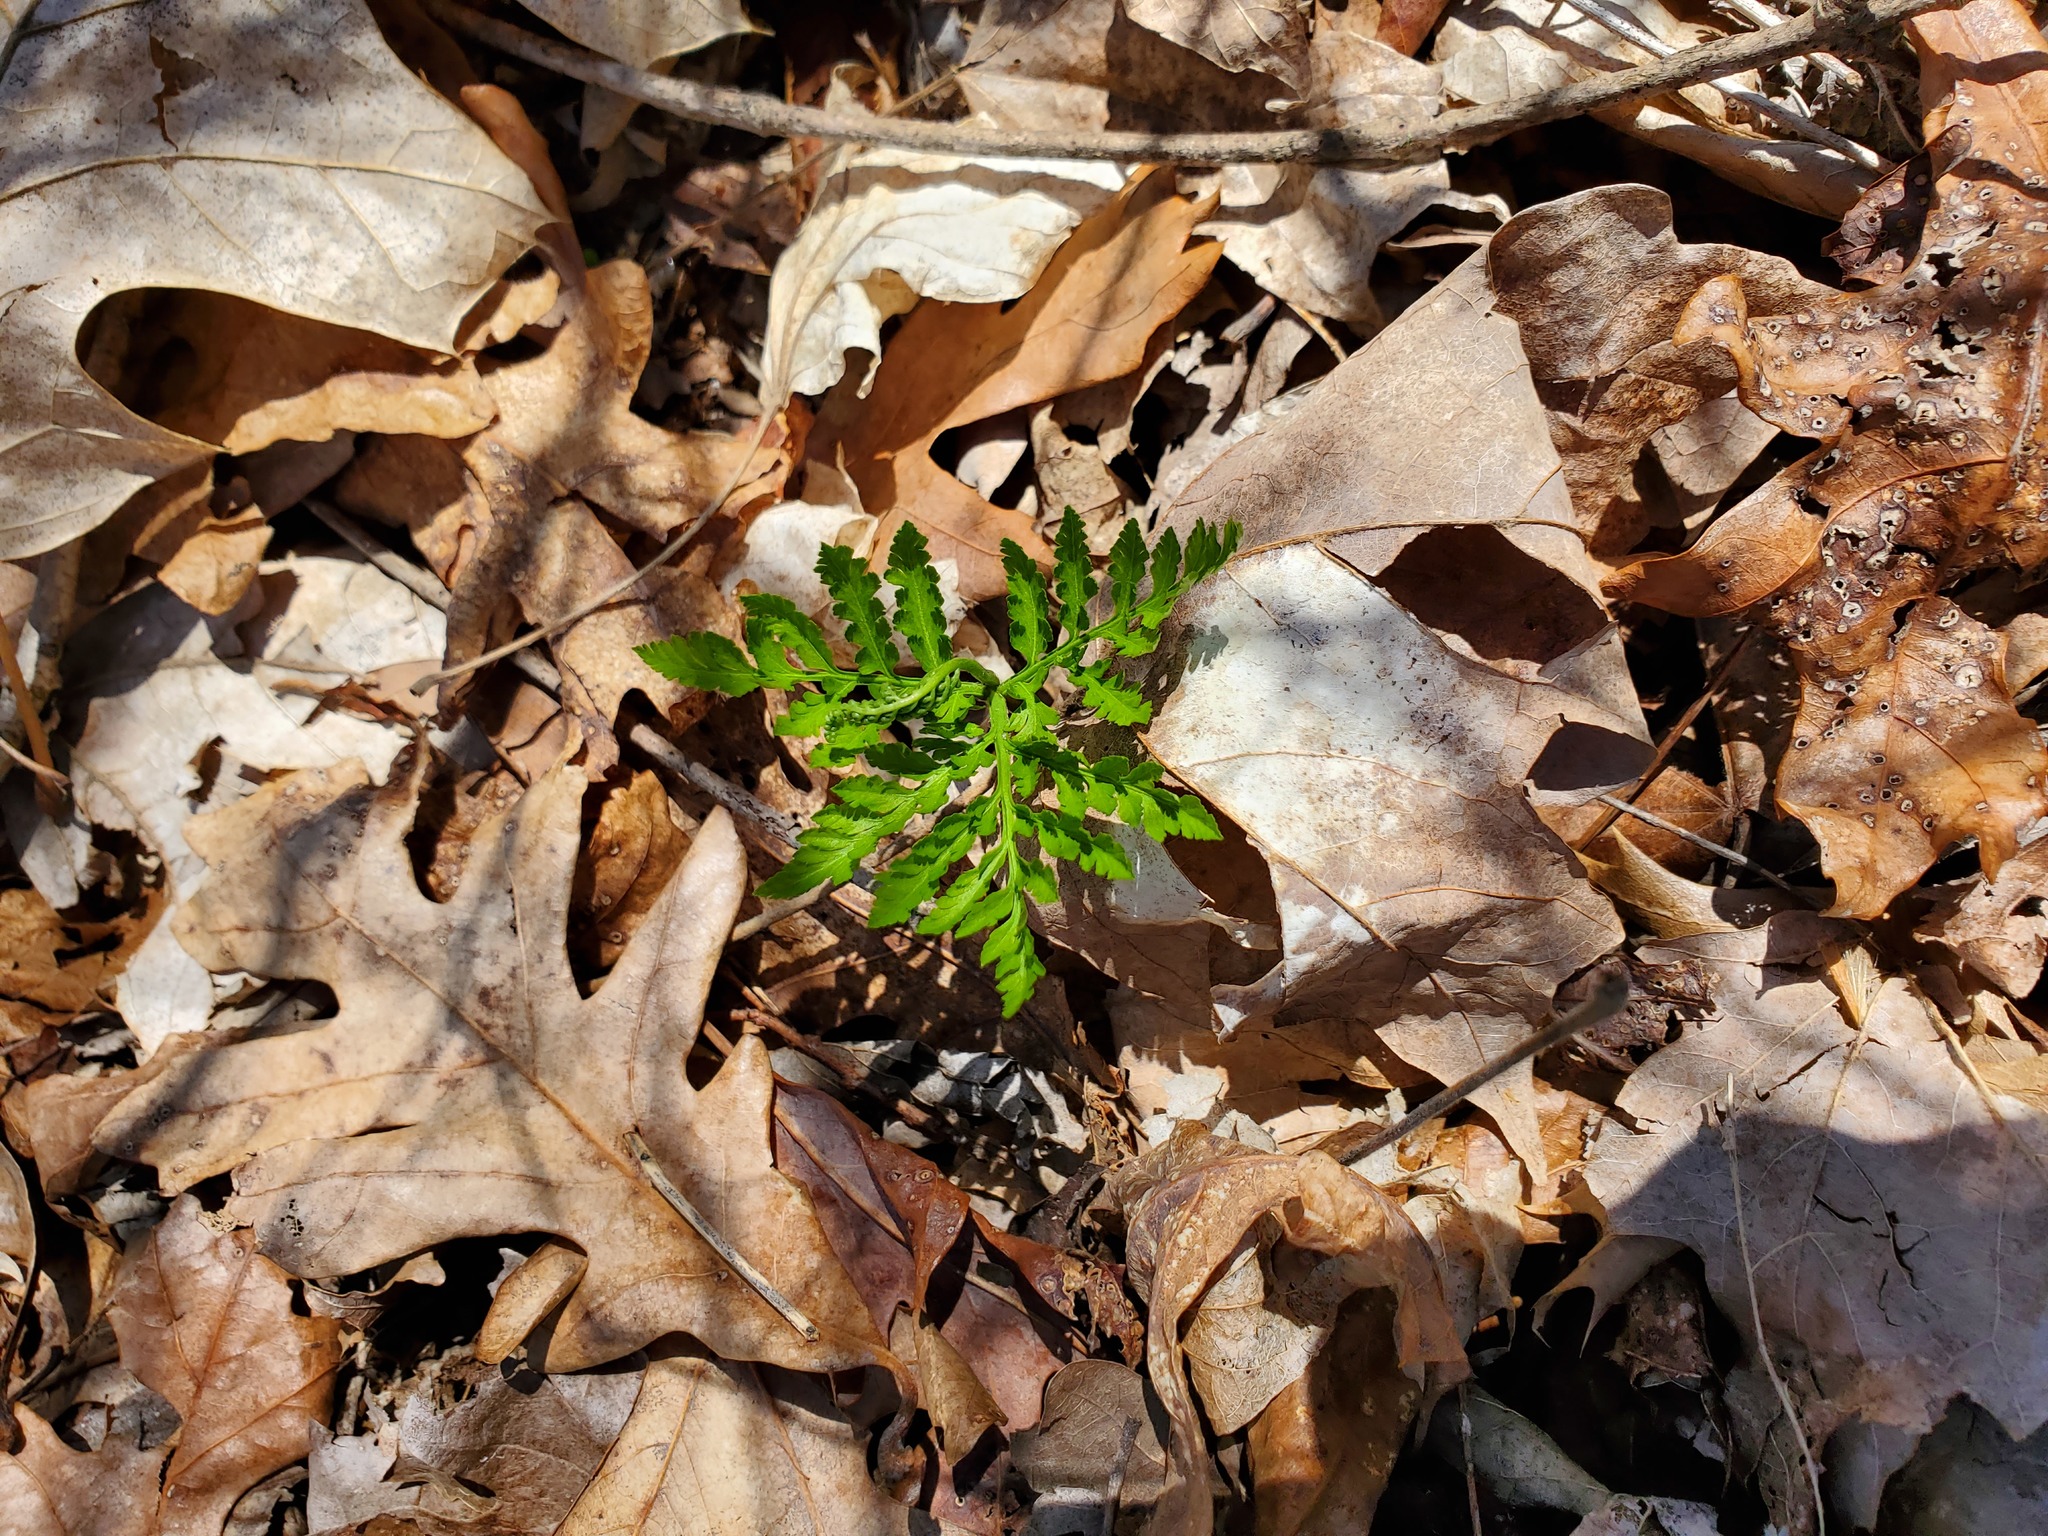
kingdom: Plantae
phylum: Tracheophyta
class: Polypodiopsida
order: Ophioglossales
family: Ophioglossaceae
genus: Botrypus
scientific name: Botrypus virginianus
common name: Common grapefern
